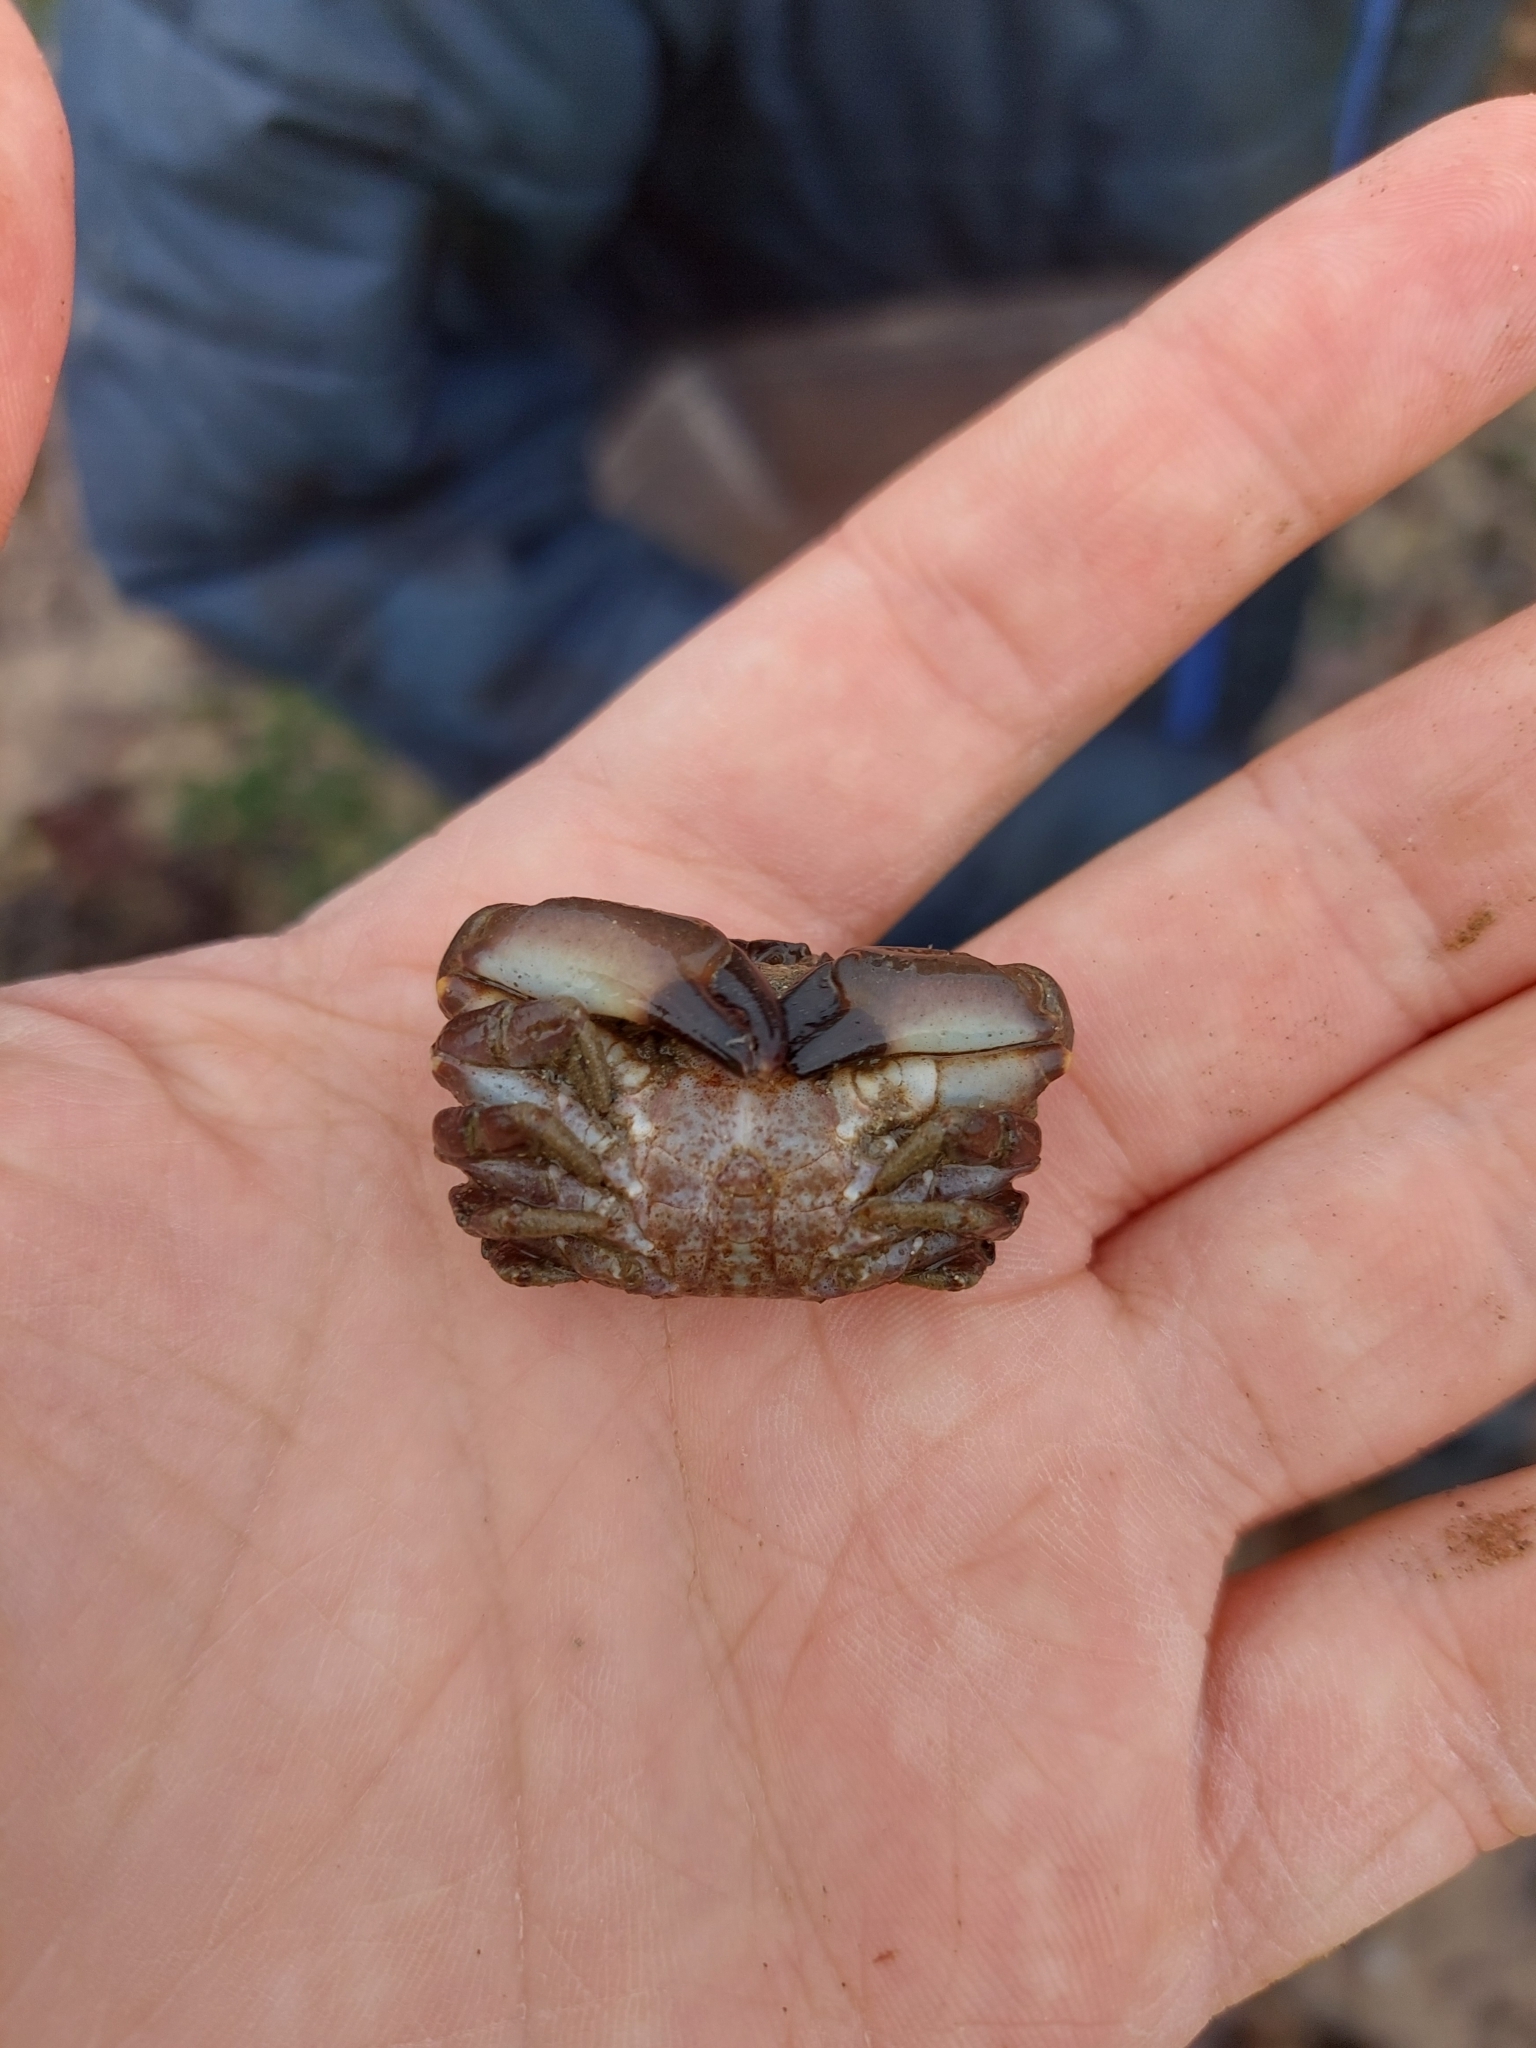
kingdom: Animalia
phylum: Arthropoda
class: Malacostraca
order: Decapoda
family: Xanthidae
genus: Xantho
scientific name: Xantho hydrophilus
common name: Montagu's crab
